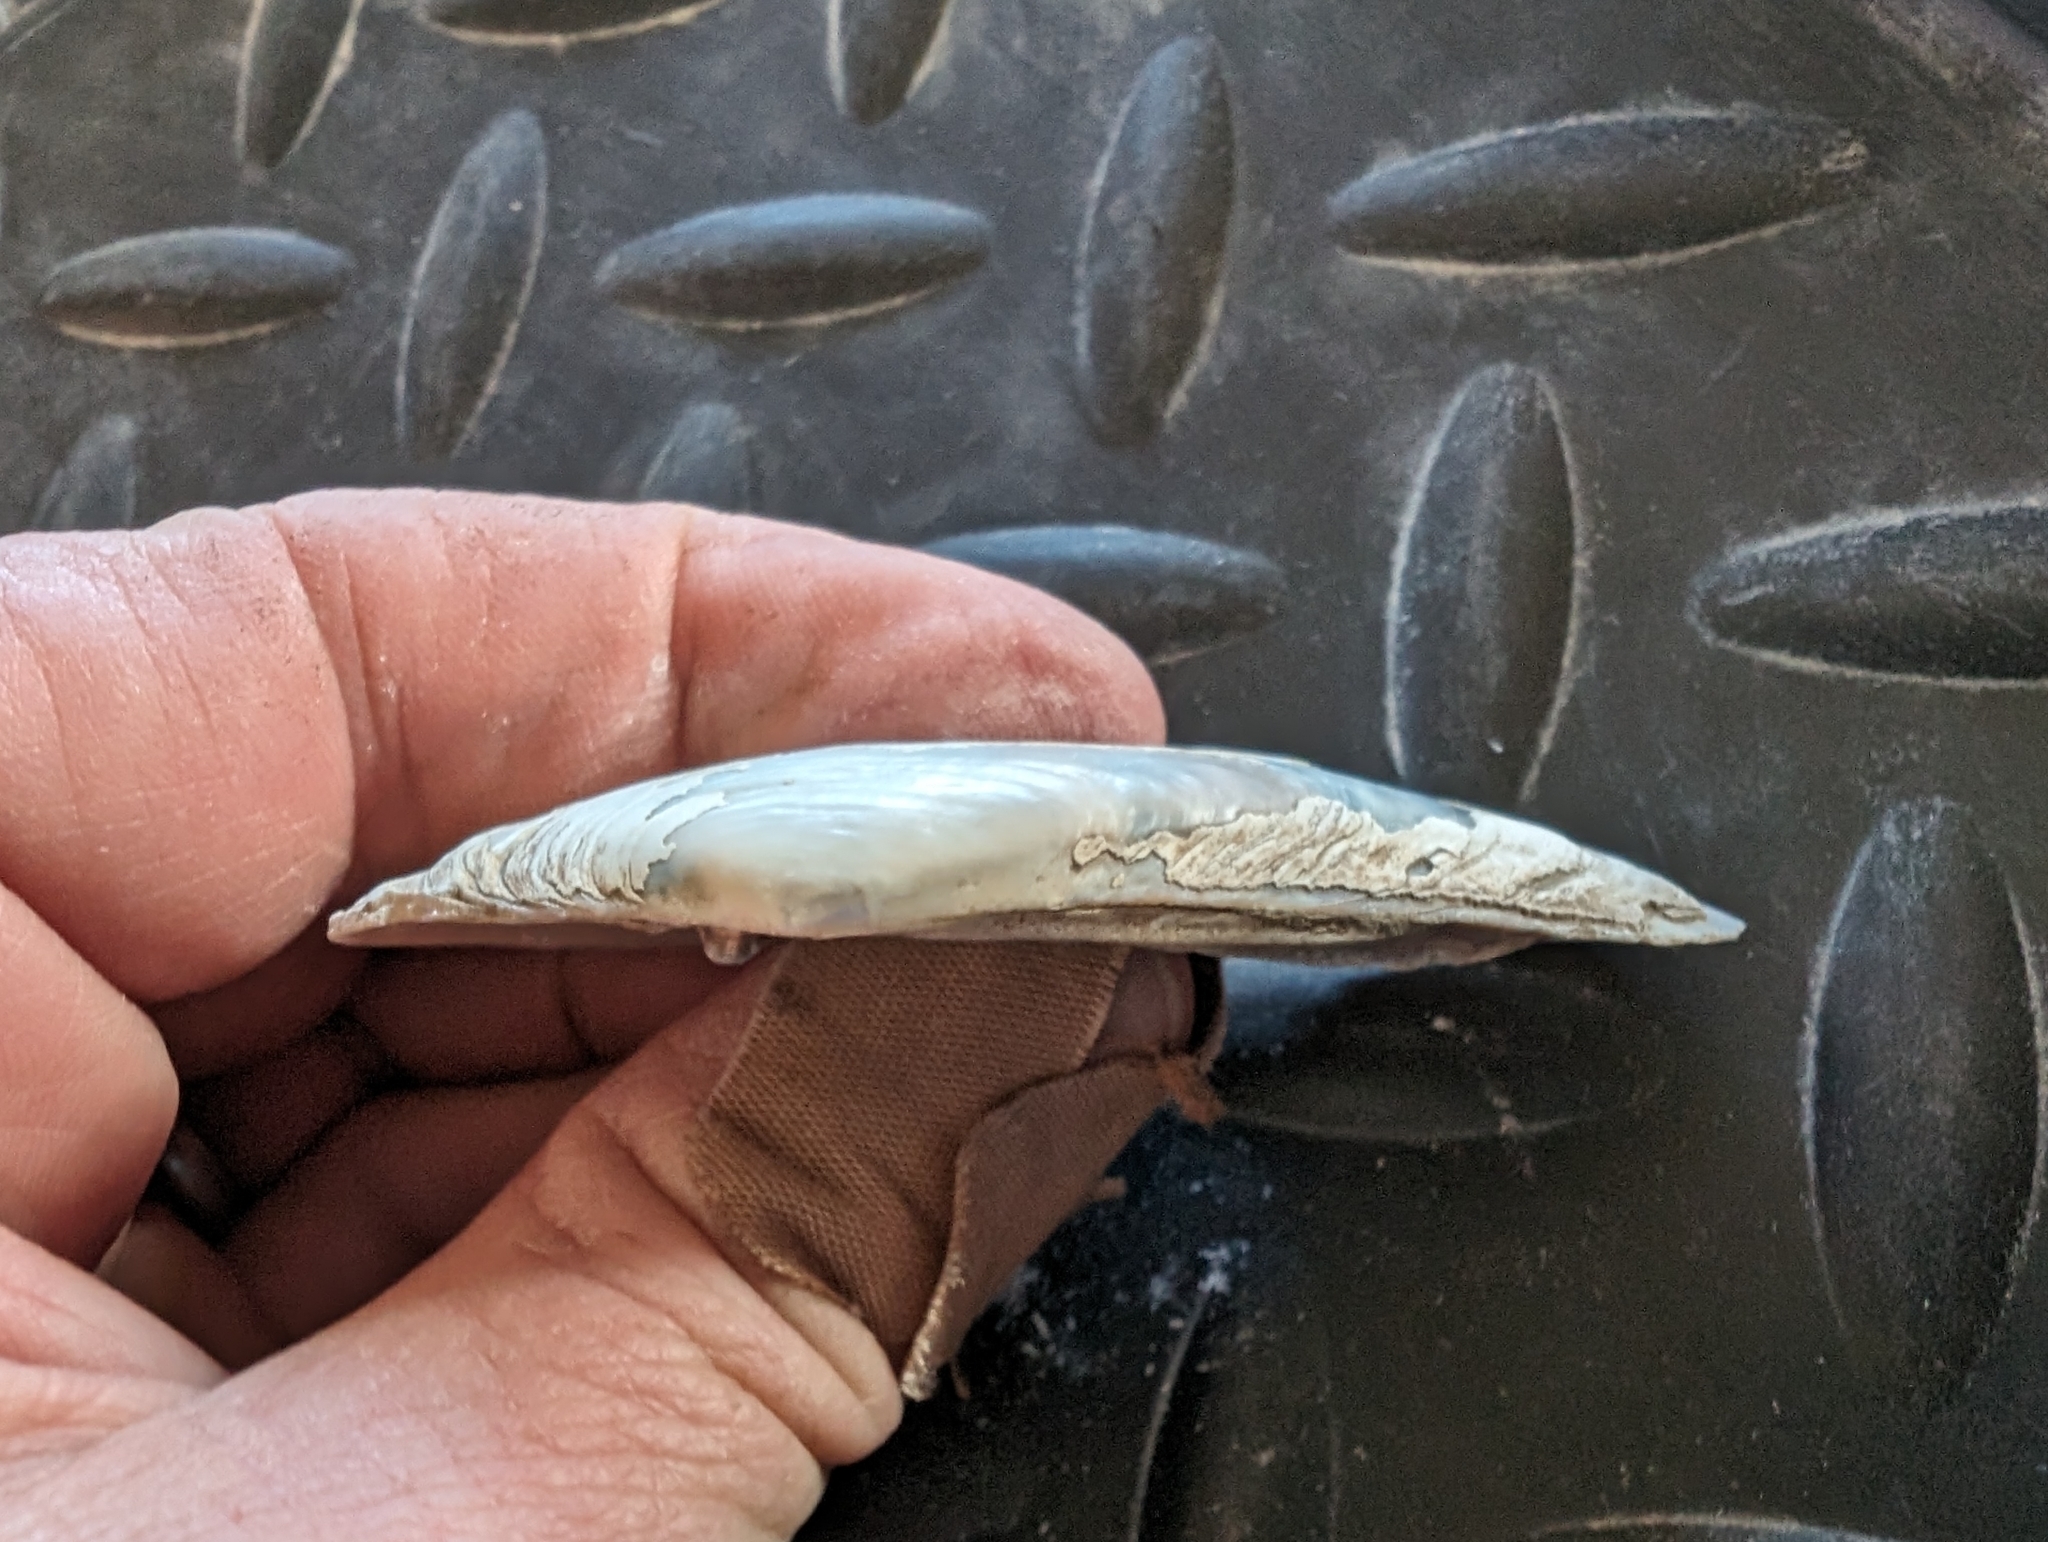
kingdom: Animalia
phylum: Mollusca
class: Bivalvia
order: Unionida
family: Unionidae
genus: Ligumia
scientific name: Ligumia recta
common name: Black sandshell
